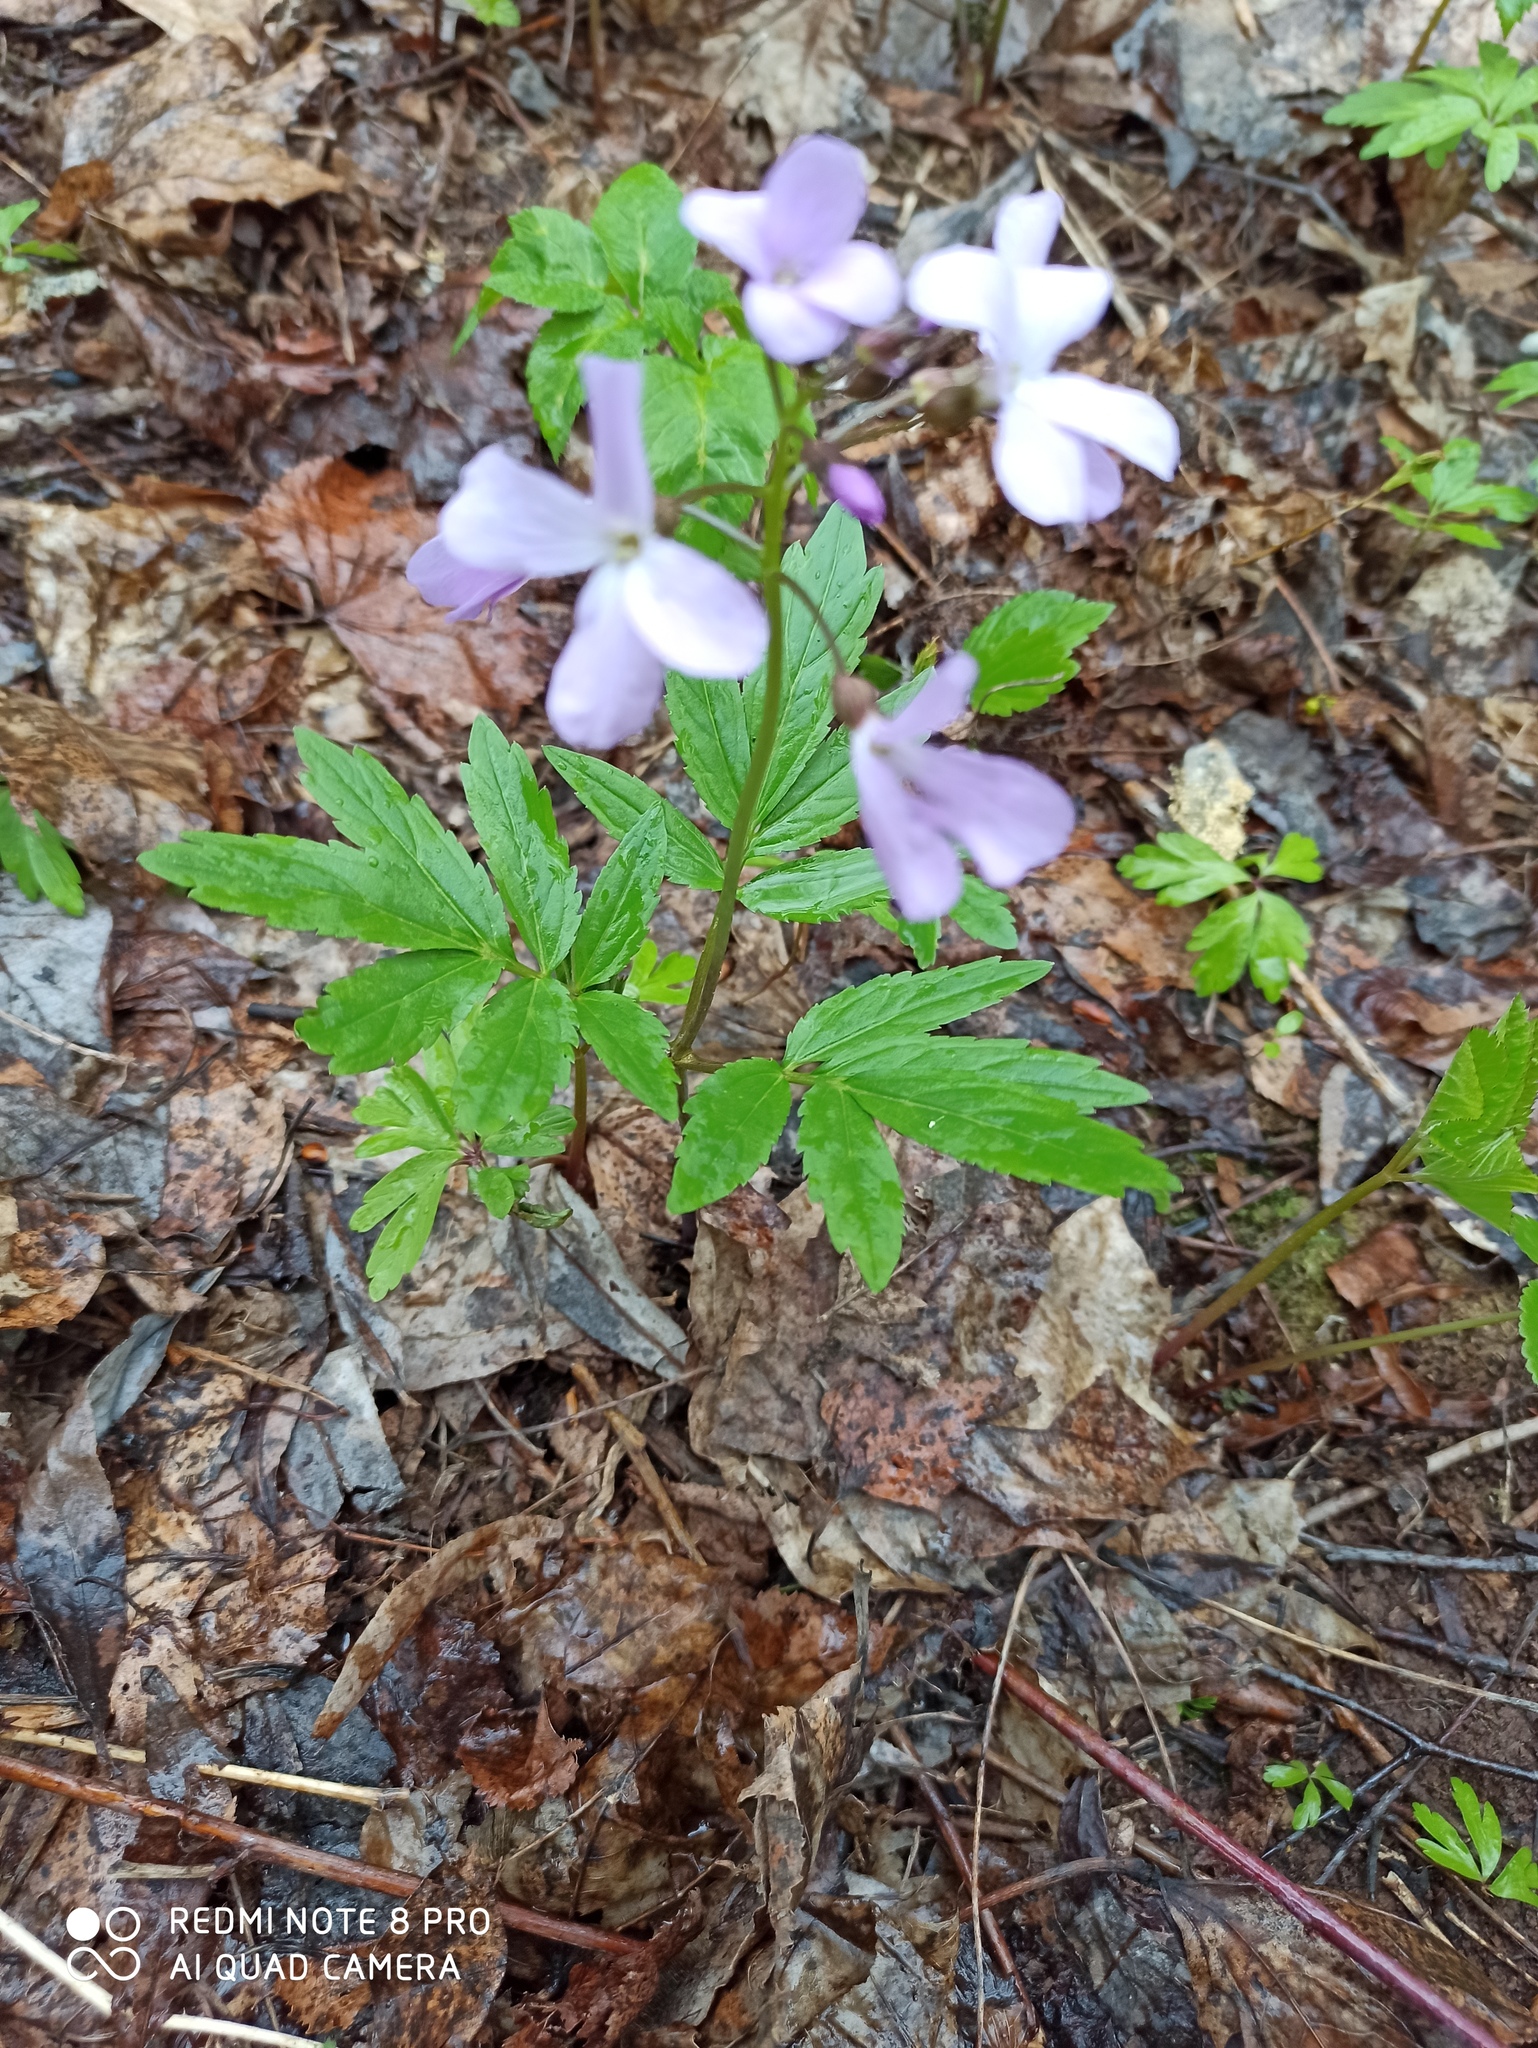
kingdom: Plantae
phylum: Tracheophyta
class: Magnoliopsida
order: Brassicales
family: Brassicaceae
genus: Cardamine
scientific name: Cardamine quinquefolia
